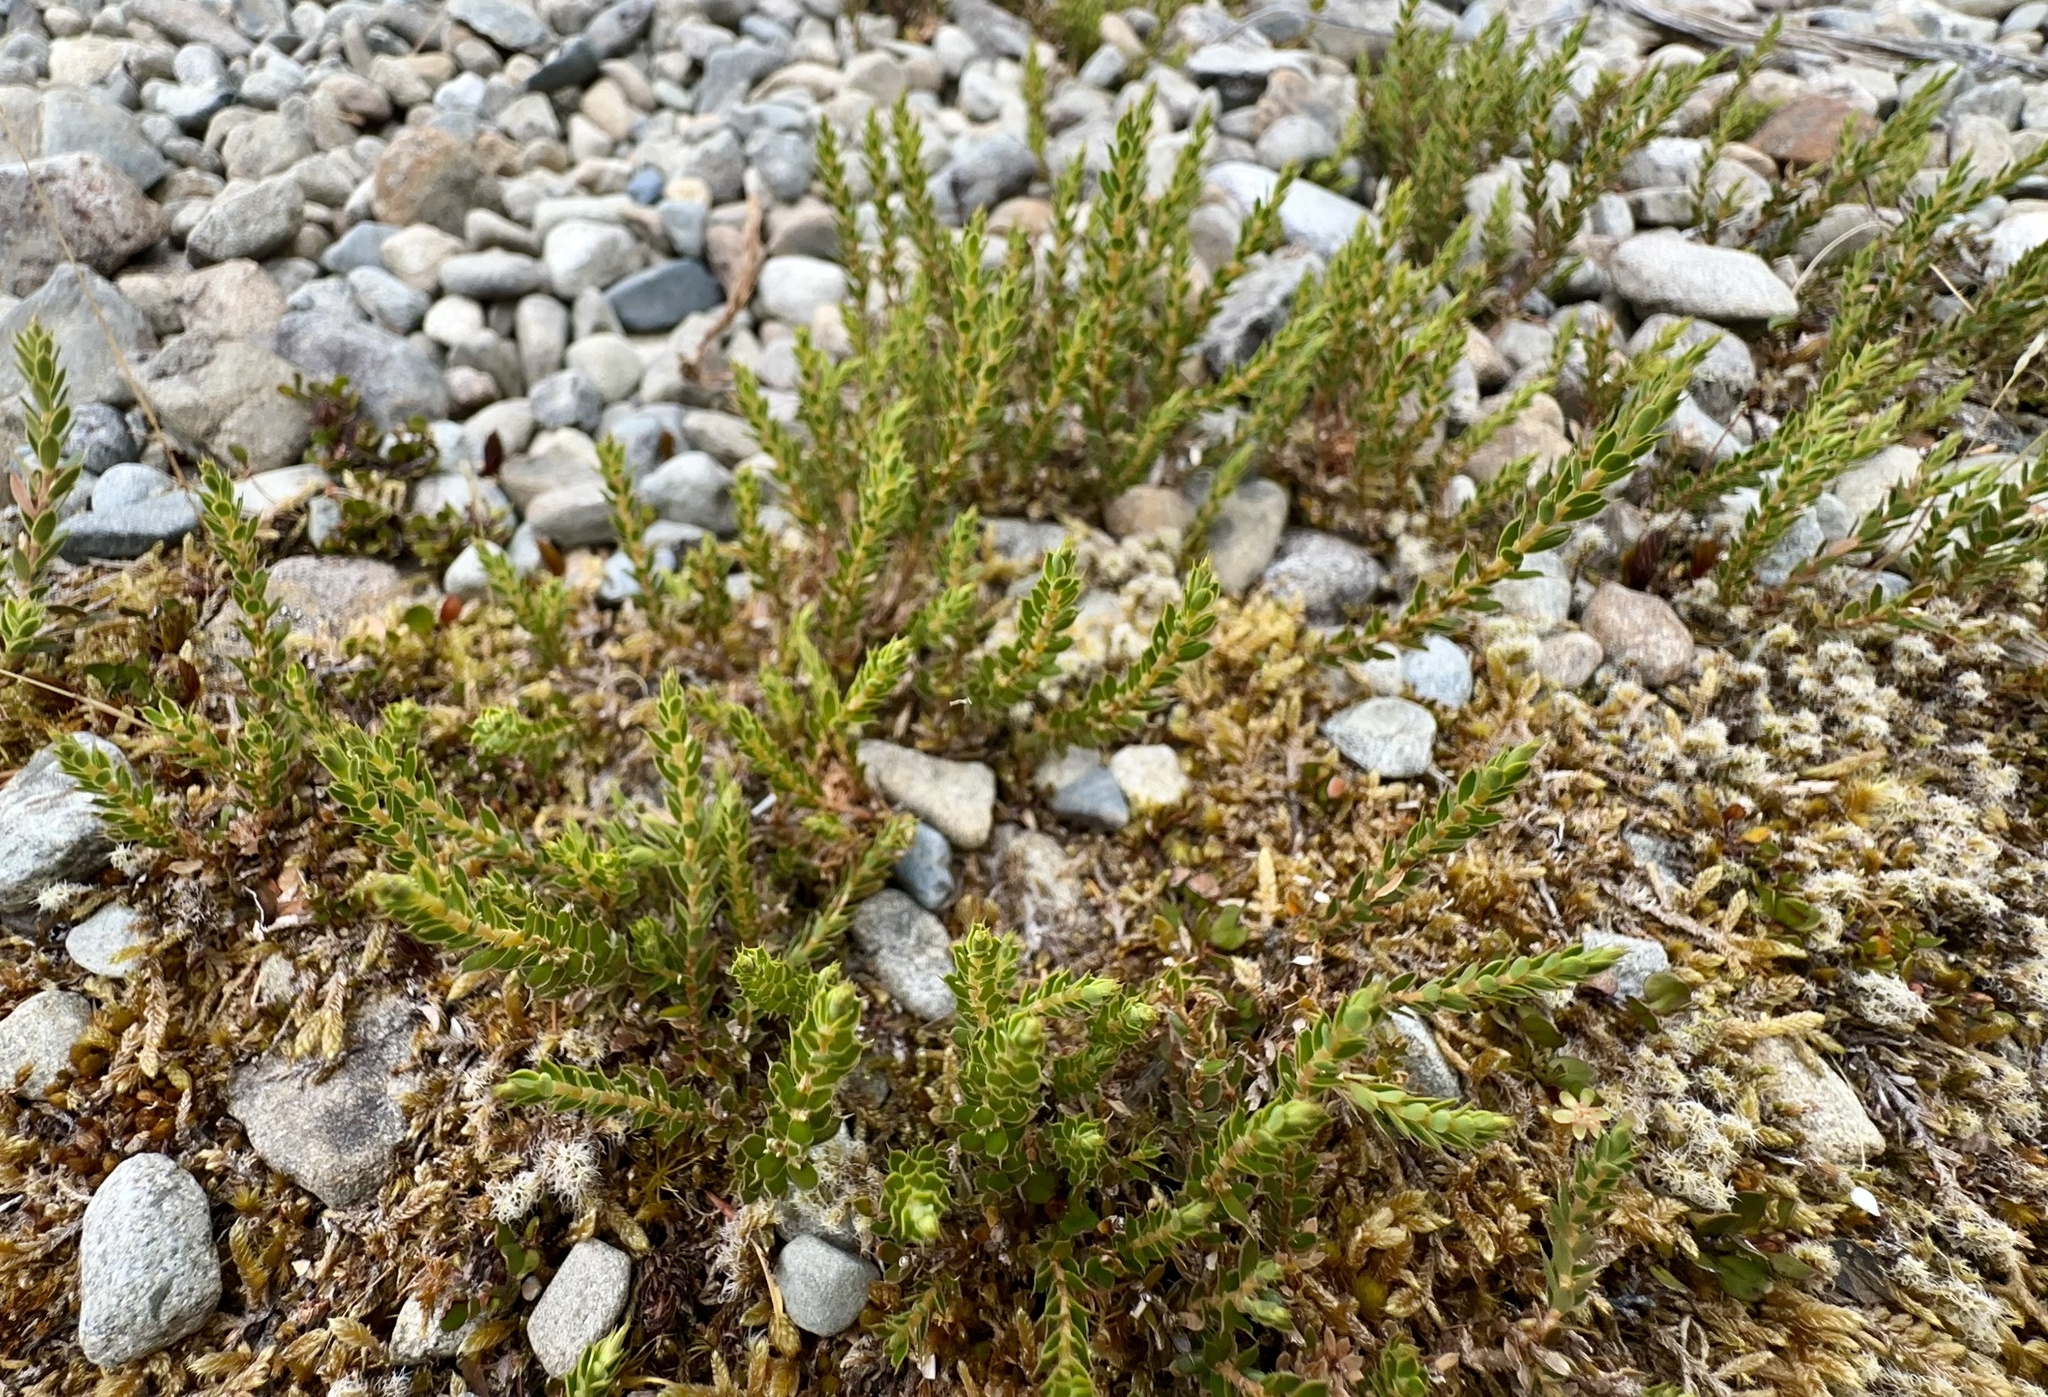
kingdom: Plantae
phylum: Tracheophyta
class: Magnoliopsida
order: Ericales
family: Ericaceae
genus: Styphelia
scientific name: Styphelia nesophila
